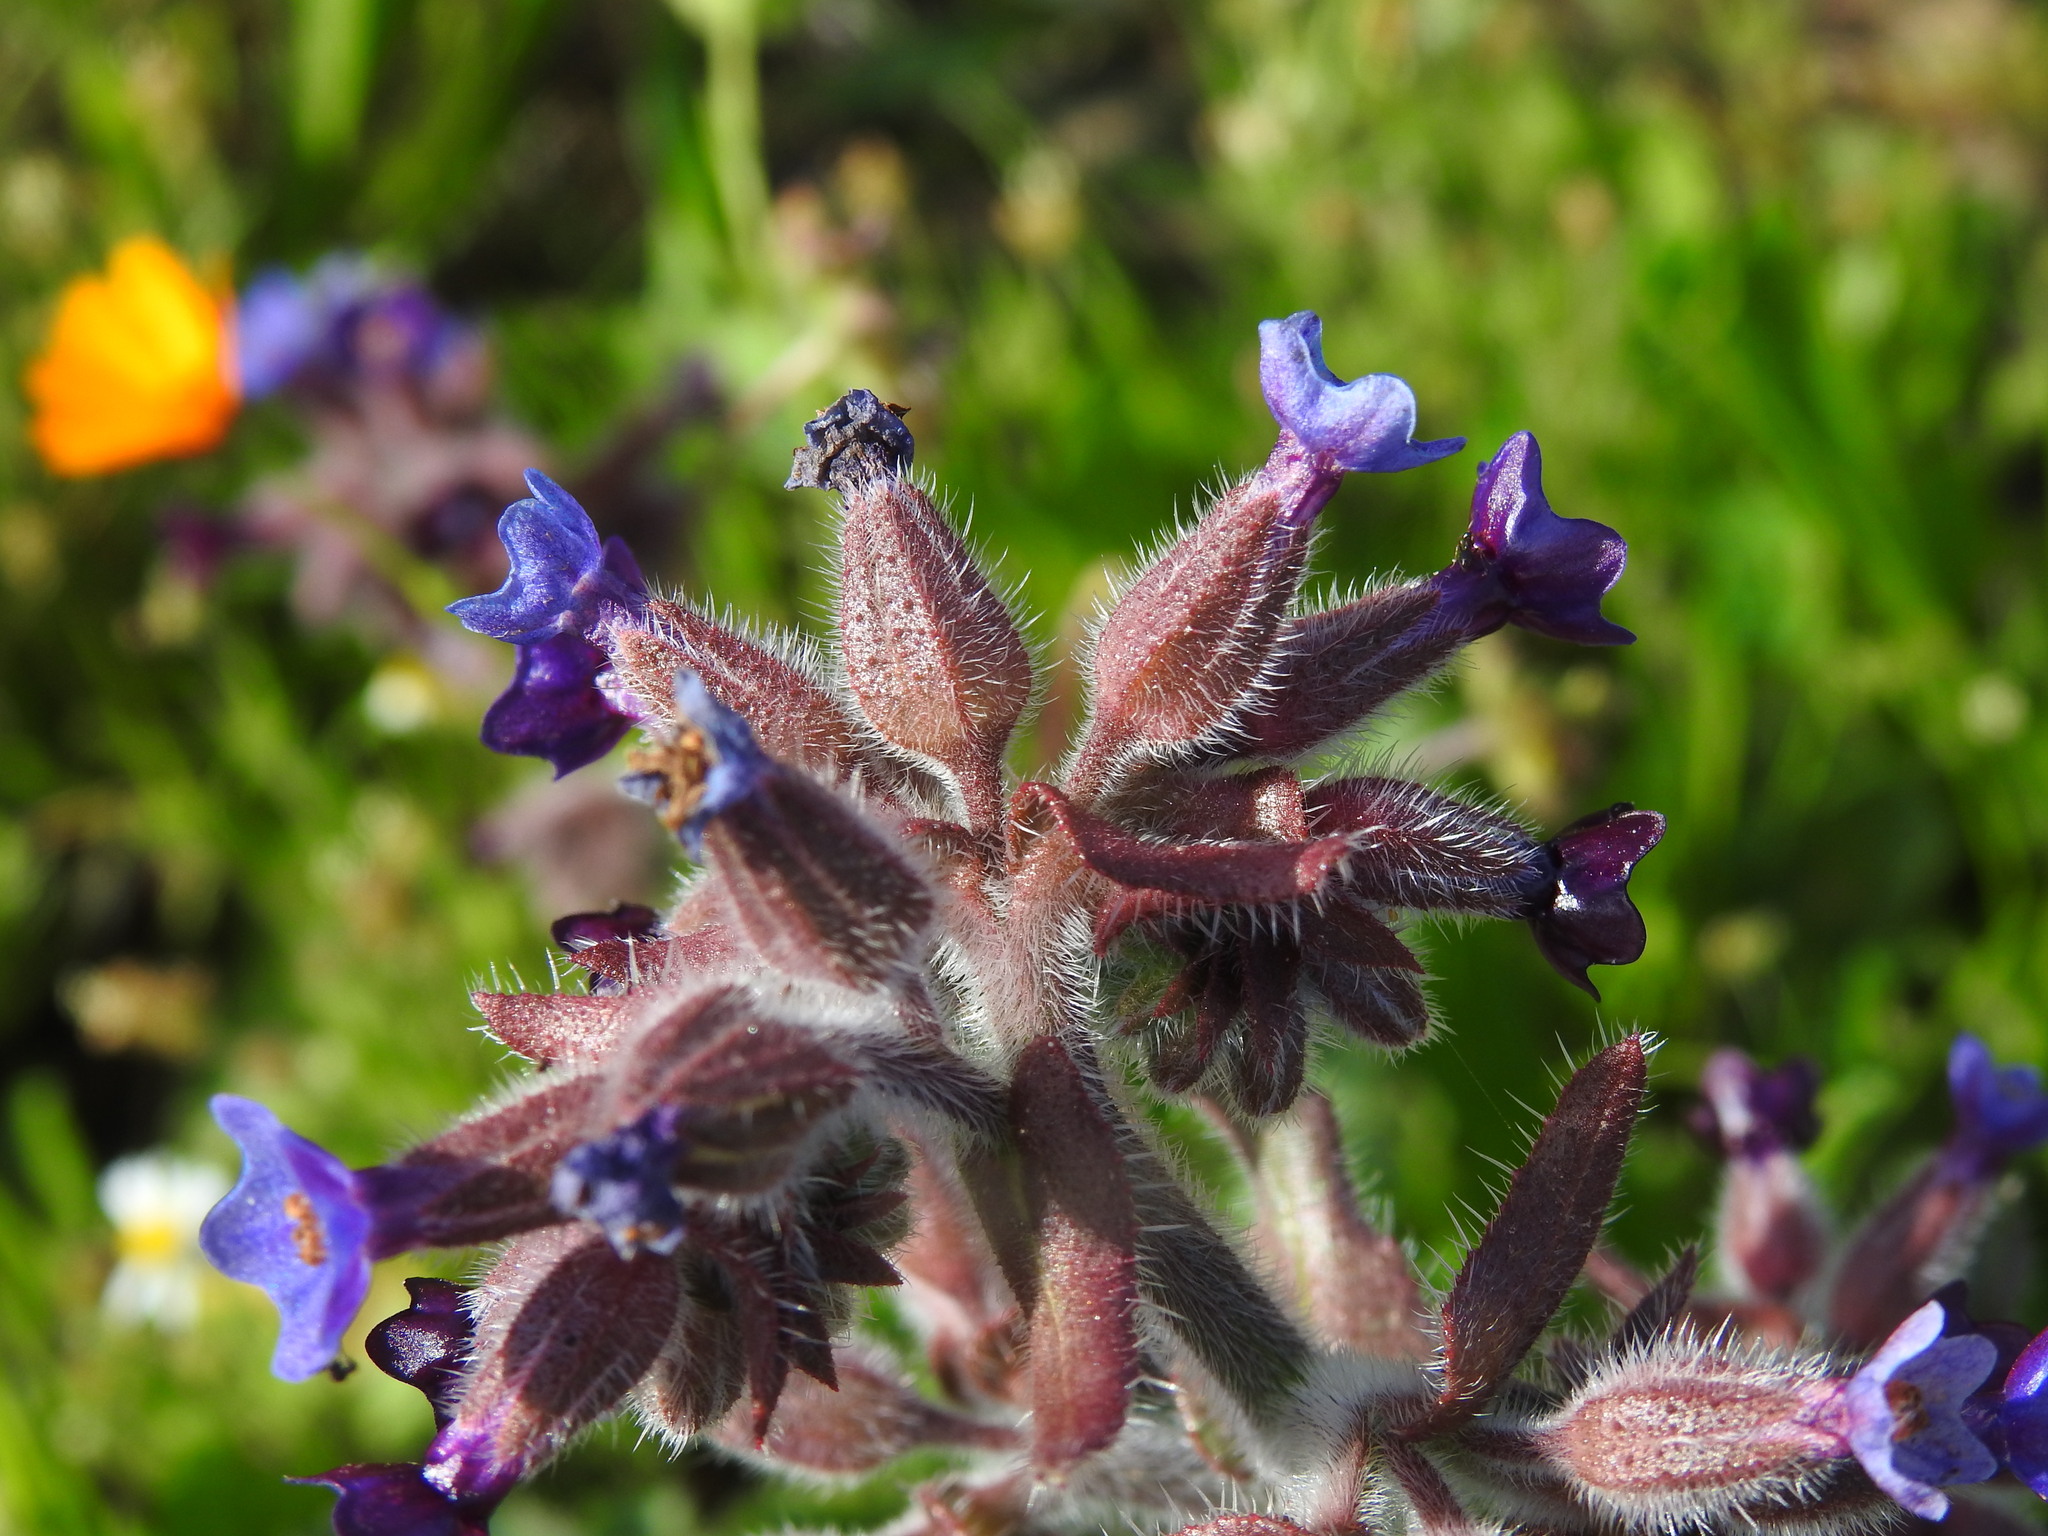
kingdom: Plantae
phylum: Tracheophyta
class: Magnoliopsida
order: Boraginales
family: Boraginaceae
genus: Anchusa
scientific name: Anchusa undulata
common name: Undulate alkanet
